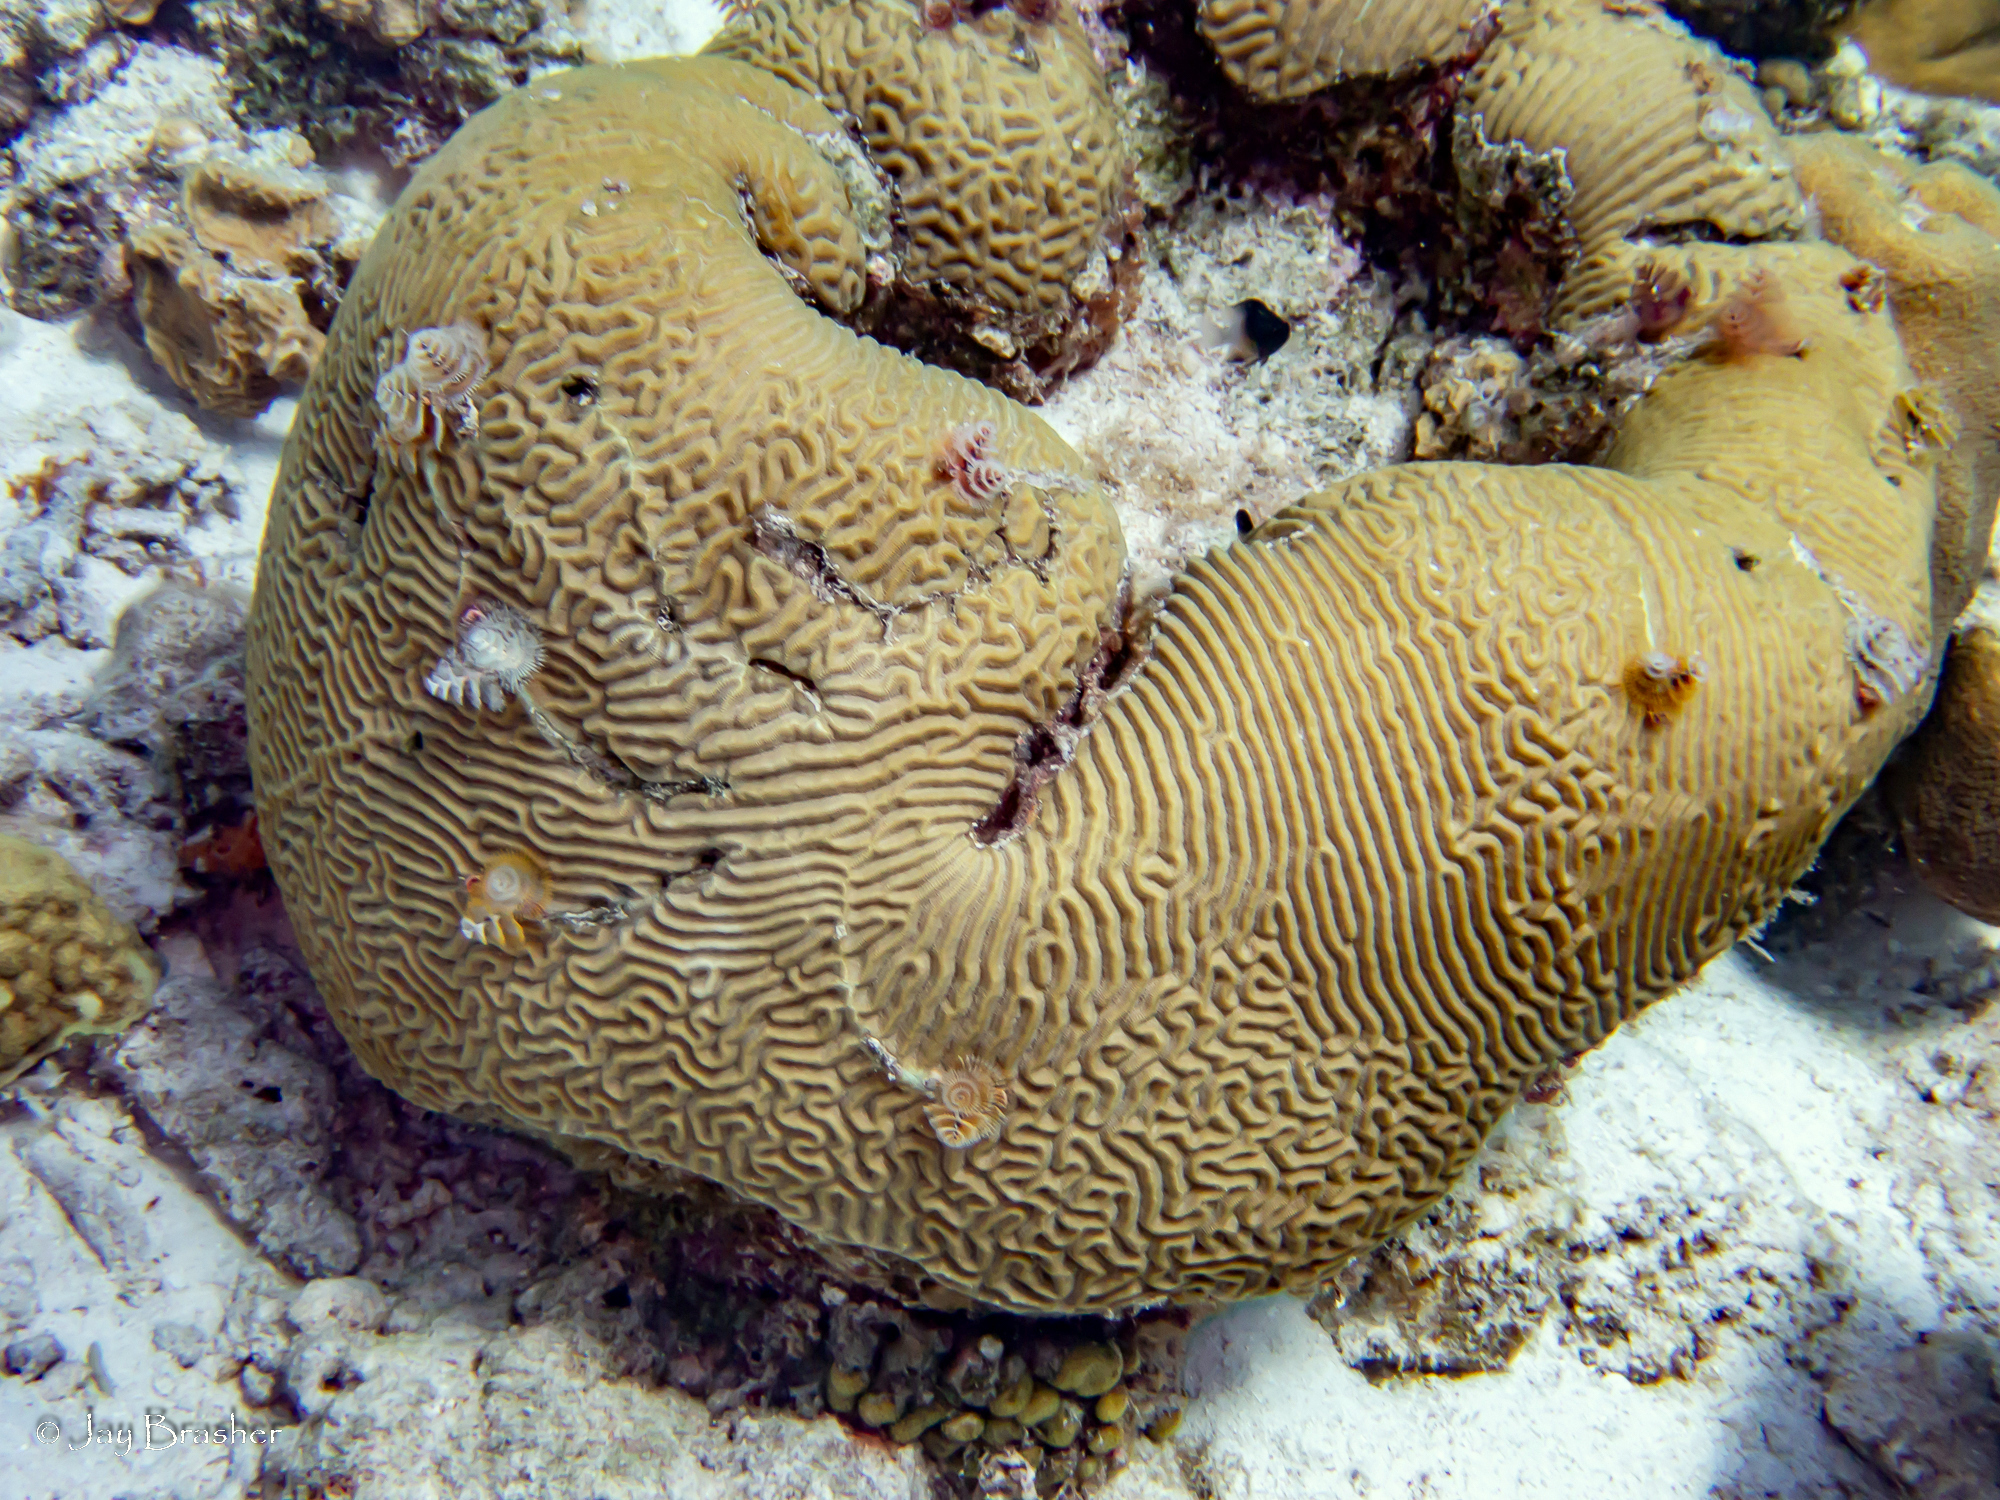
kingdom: Animalia
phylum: Cnidaria
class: Anthozoa
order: Scleractinia
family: Poritidae
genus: Porites
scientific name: Porites astreoides
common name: Mustard hill coral
